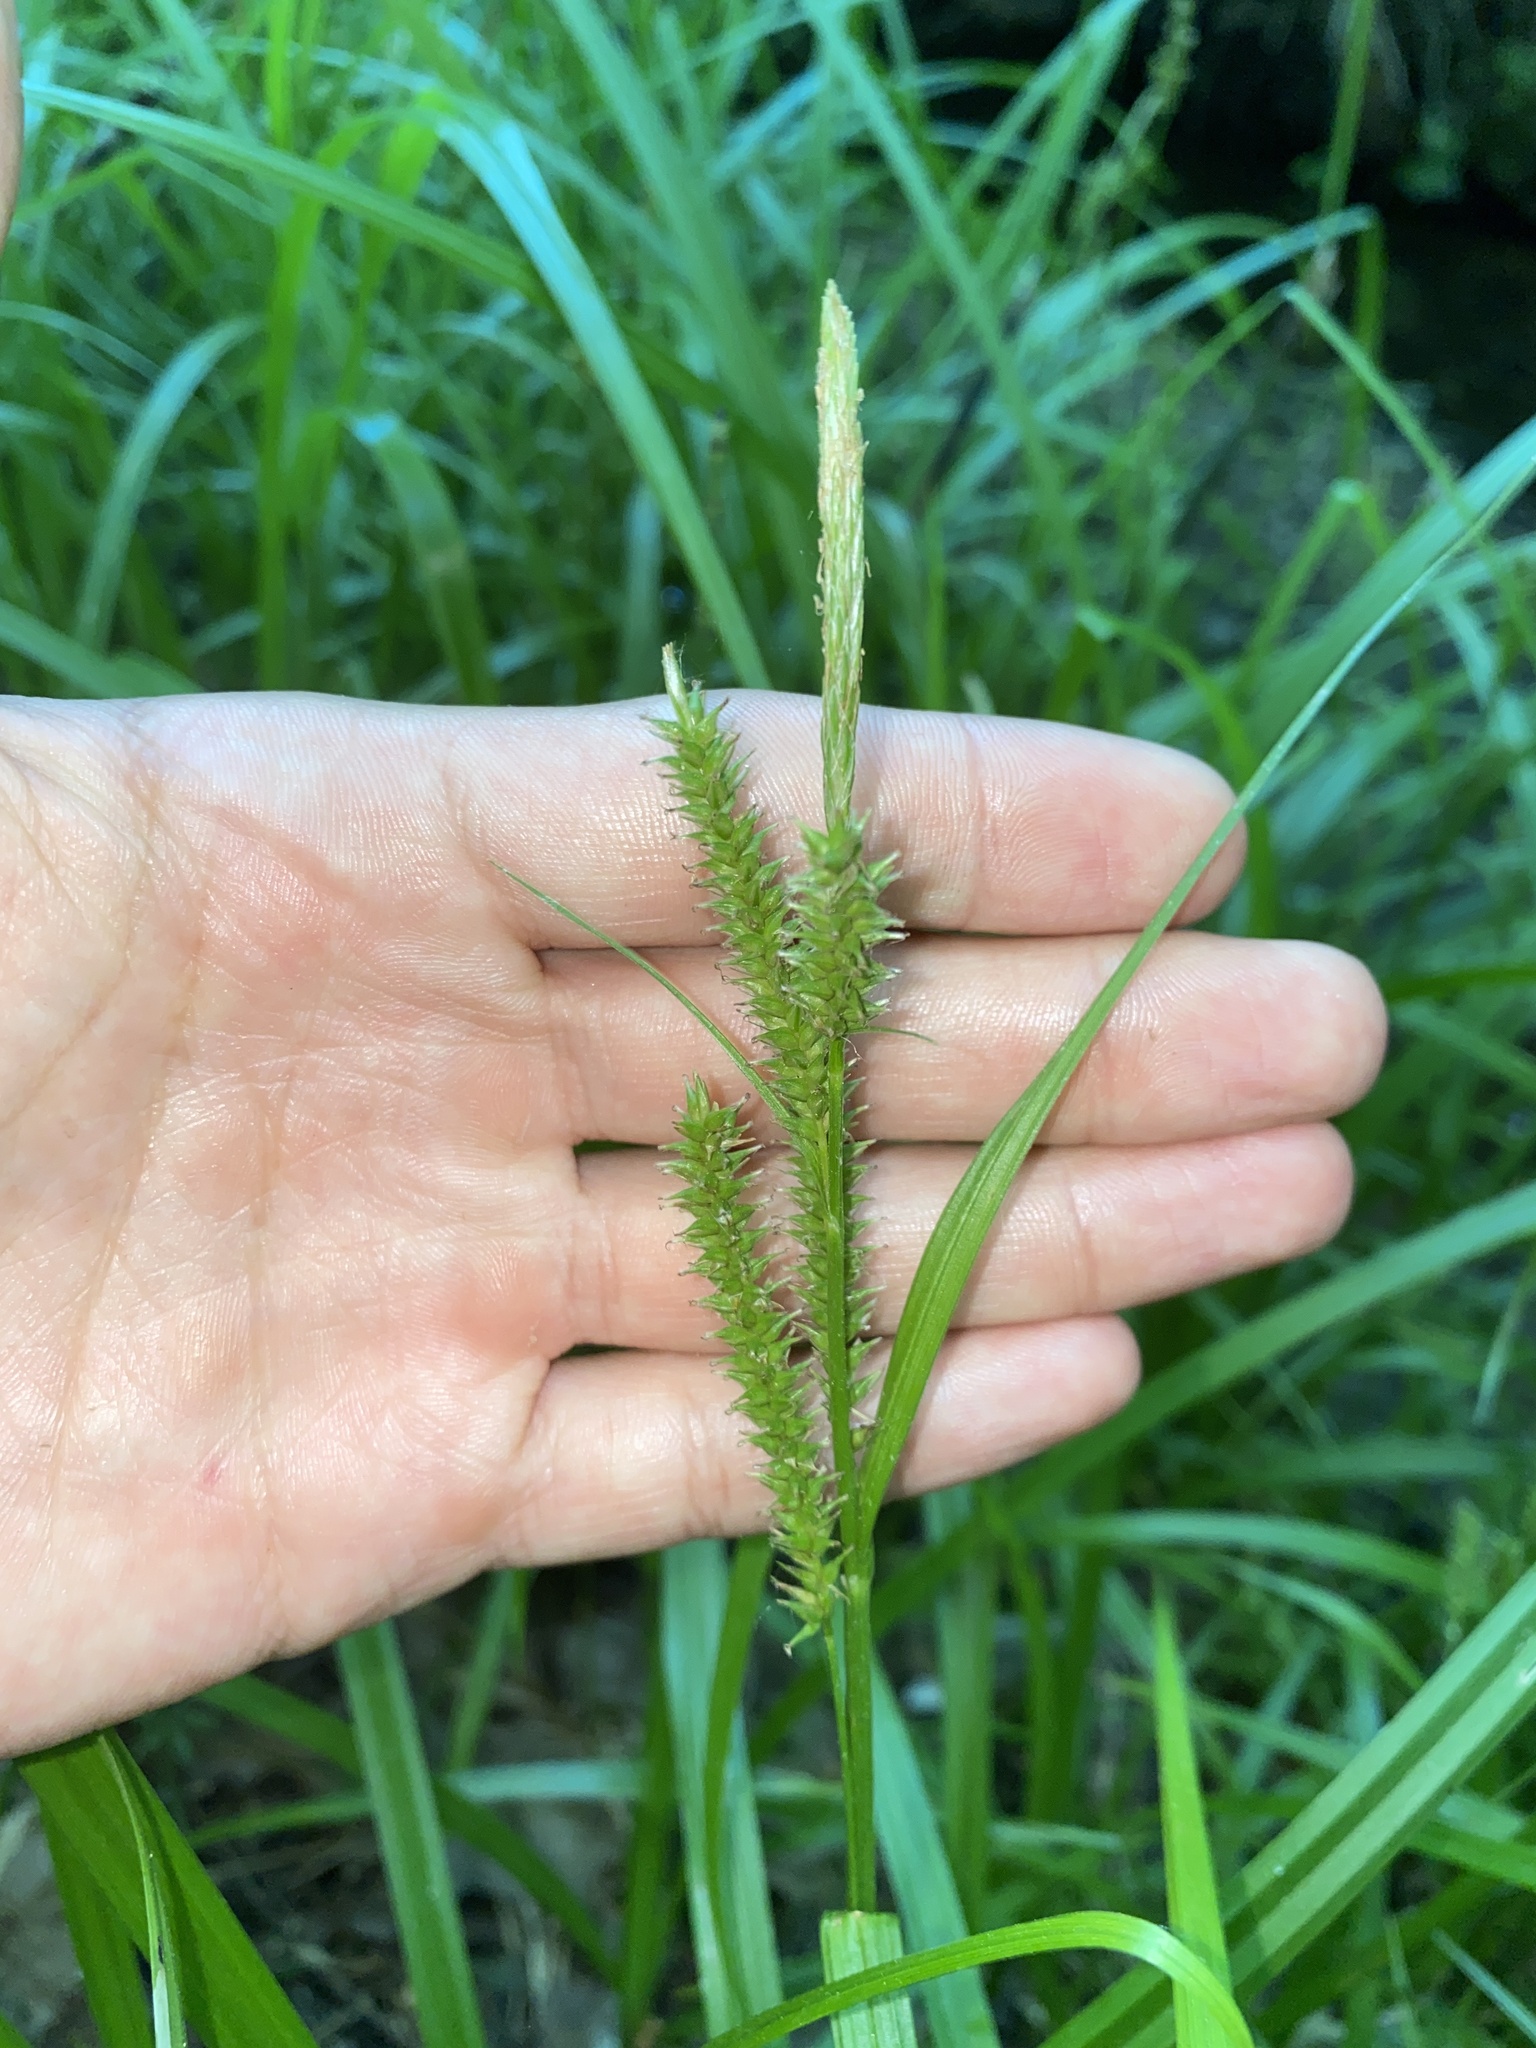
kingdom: Plantae
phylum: Tracheophyta
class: Liliopsida
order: Poales
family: Cyperaceae
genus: Carex
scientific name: Carex scabrata
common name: Eastern rough sedge
